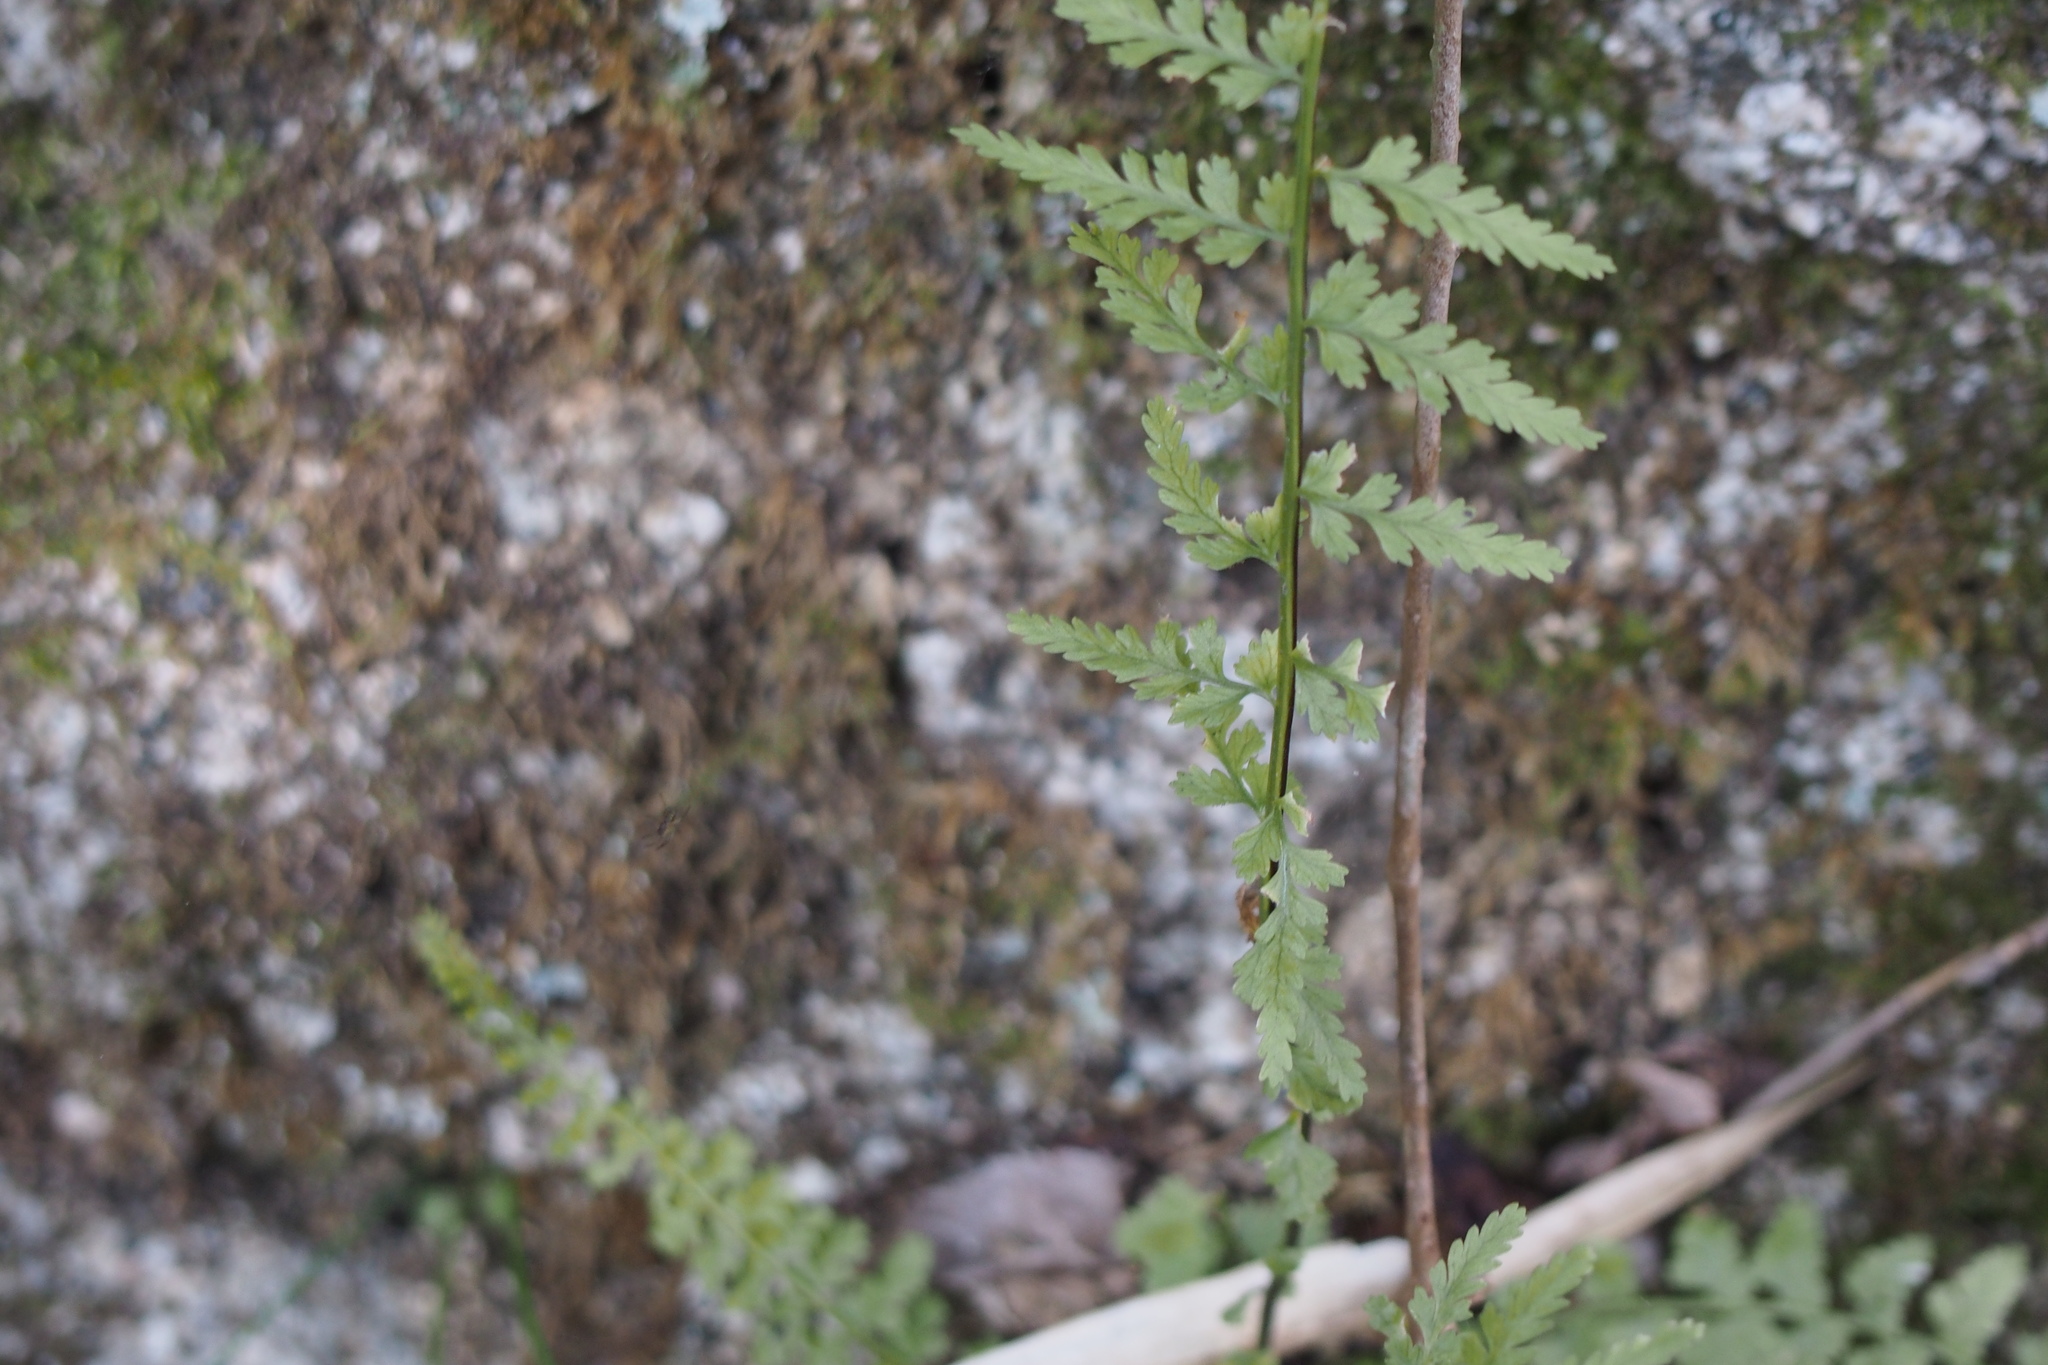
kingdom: Plantae
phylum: Tracheophyta
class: Polypodiopsida
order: Polypodiales
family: Aspleniaceae
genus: Asplenium
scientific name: Asplenium incisum
